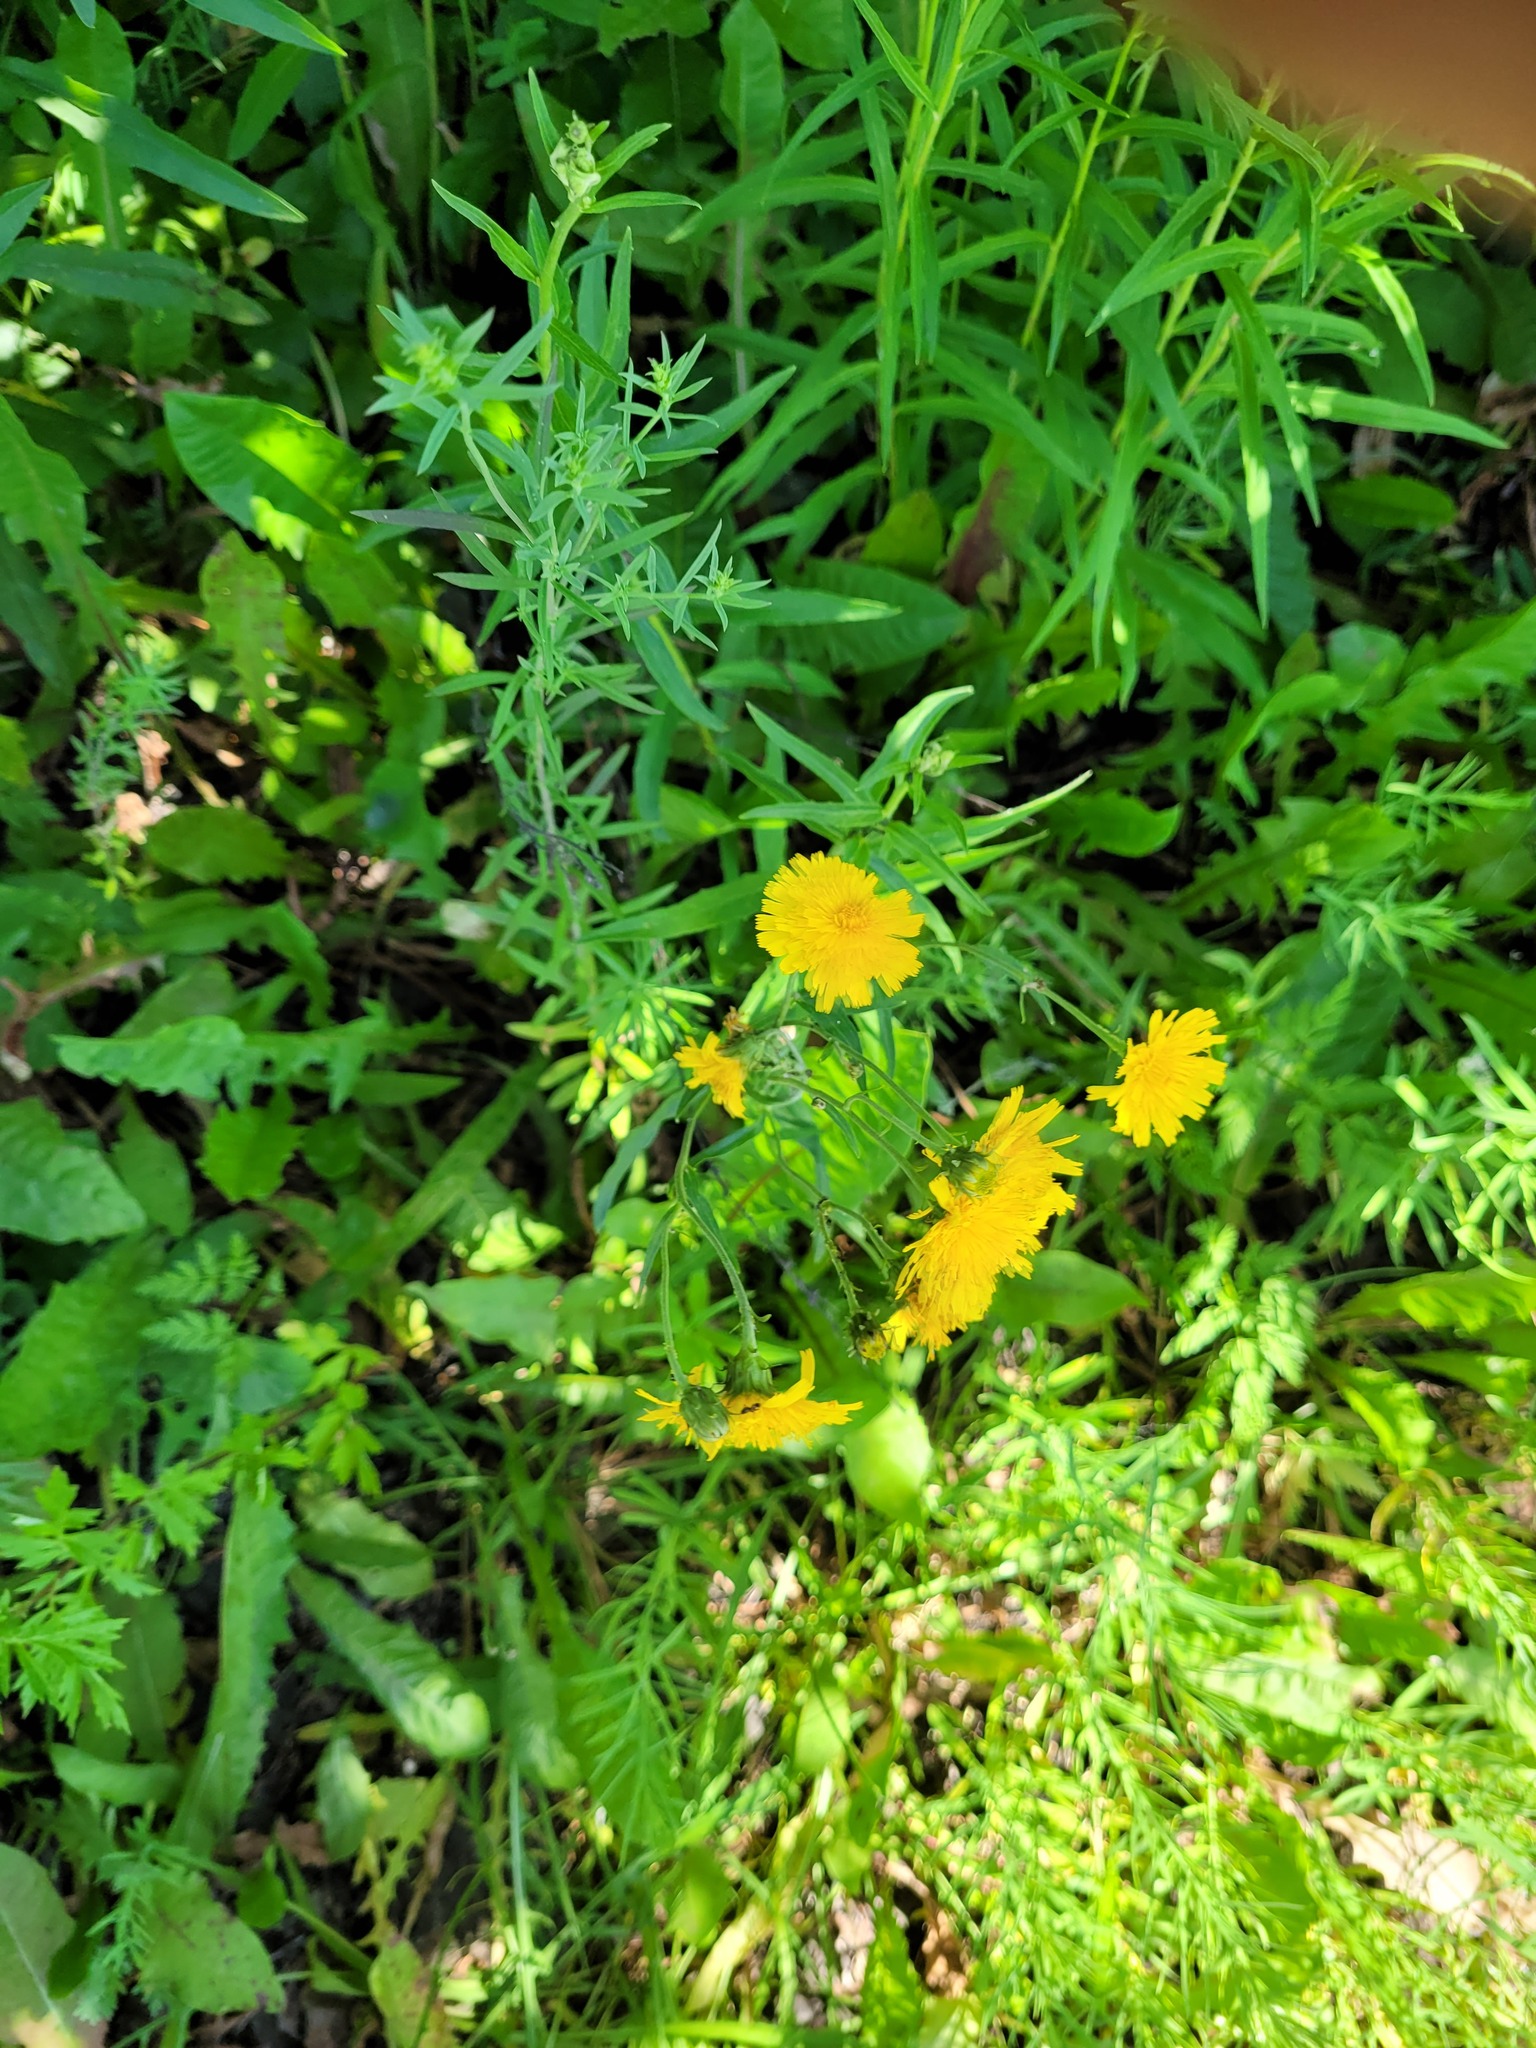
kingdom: Plantae
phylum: Tracheophyta
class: Magnoliopsida
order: Asterales
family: Asteraceae
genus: Hieracium
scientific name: Hieracium umbellatum
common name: Northern hawkweed
